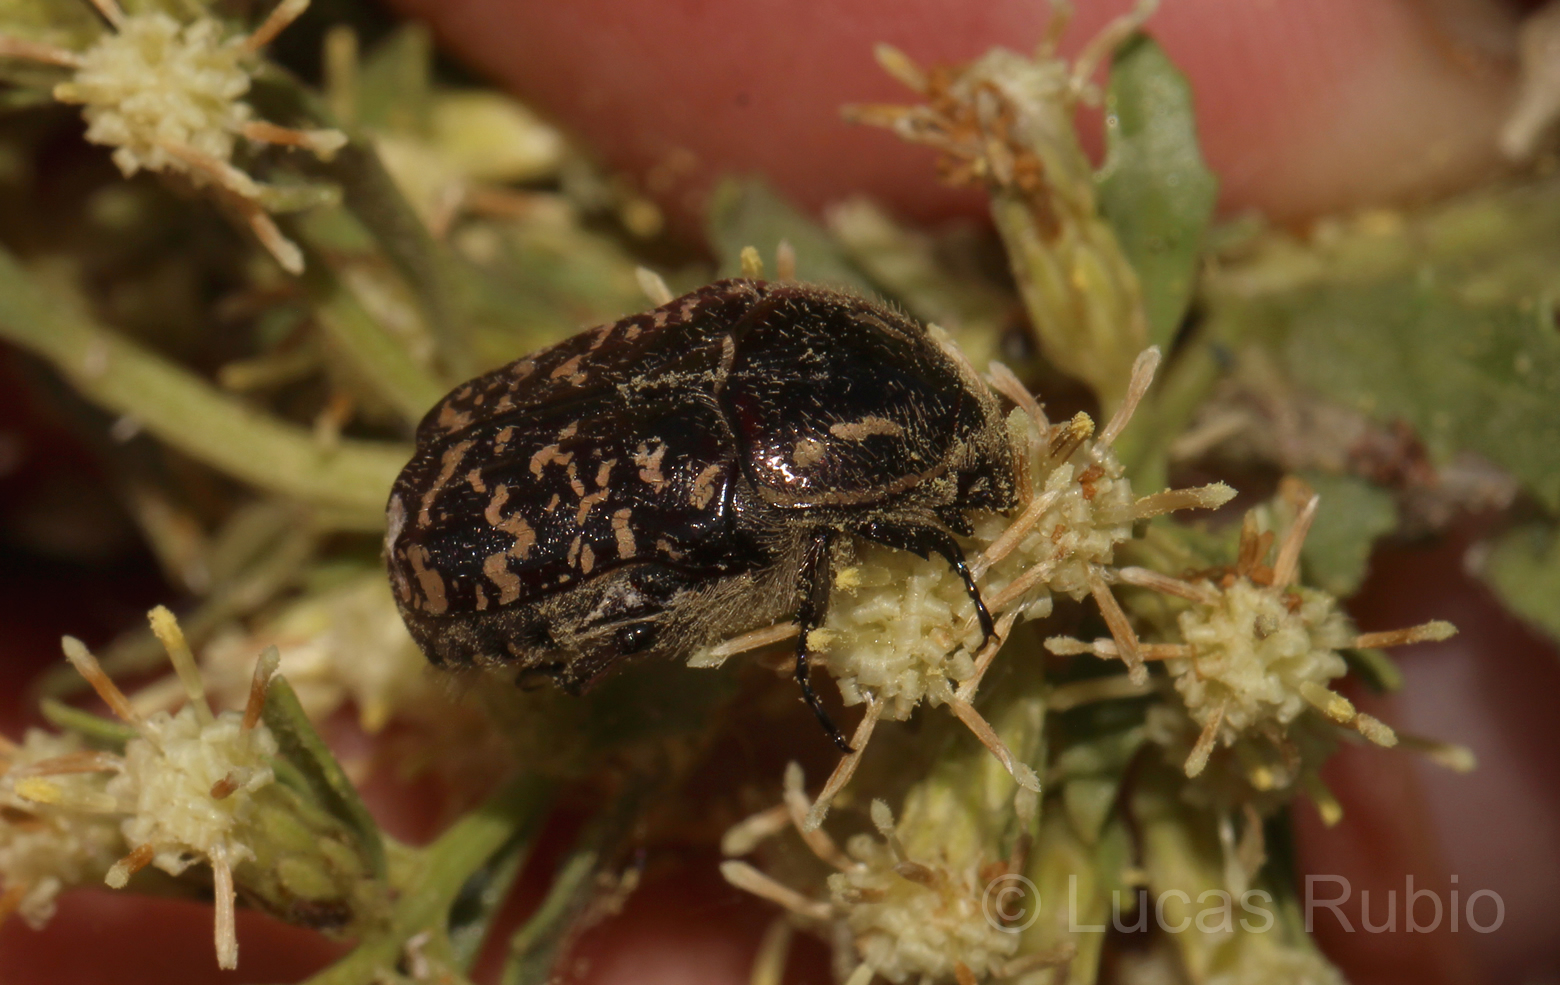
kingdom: Animalia
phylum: Arthropoda
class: Insecta
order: Coleoptera
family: Scarabaeidae
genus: Euphoria
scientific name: Euphoria lurida
